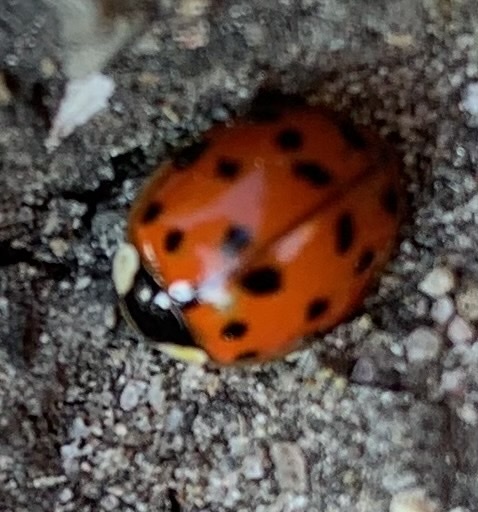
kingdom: Animalia
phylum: Arthropoda
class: Insecta
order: Coleoptera
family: Coccinellidae
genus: Harmonia
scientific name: Harmonia axyridis
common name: Harlequin ladybird
